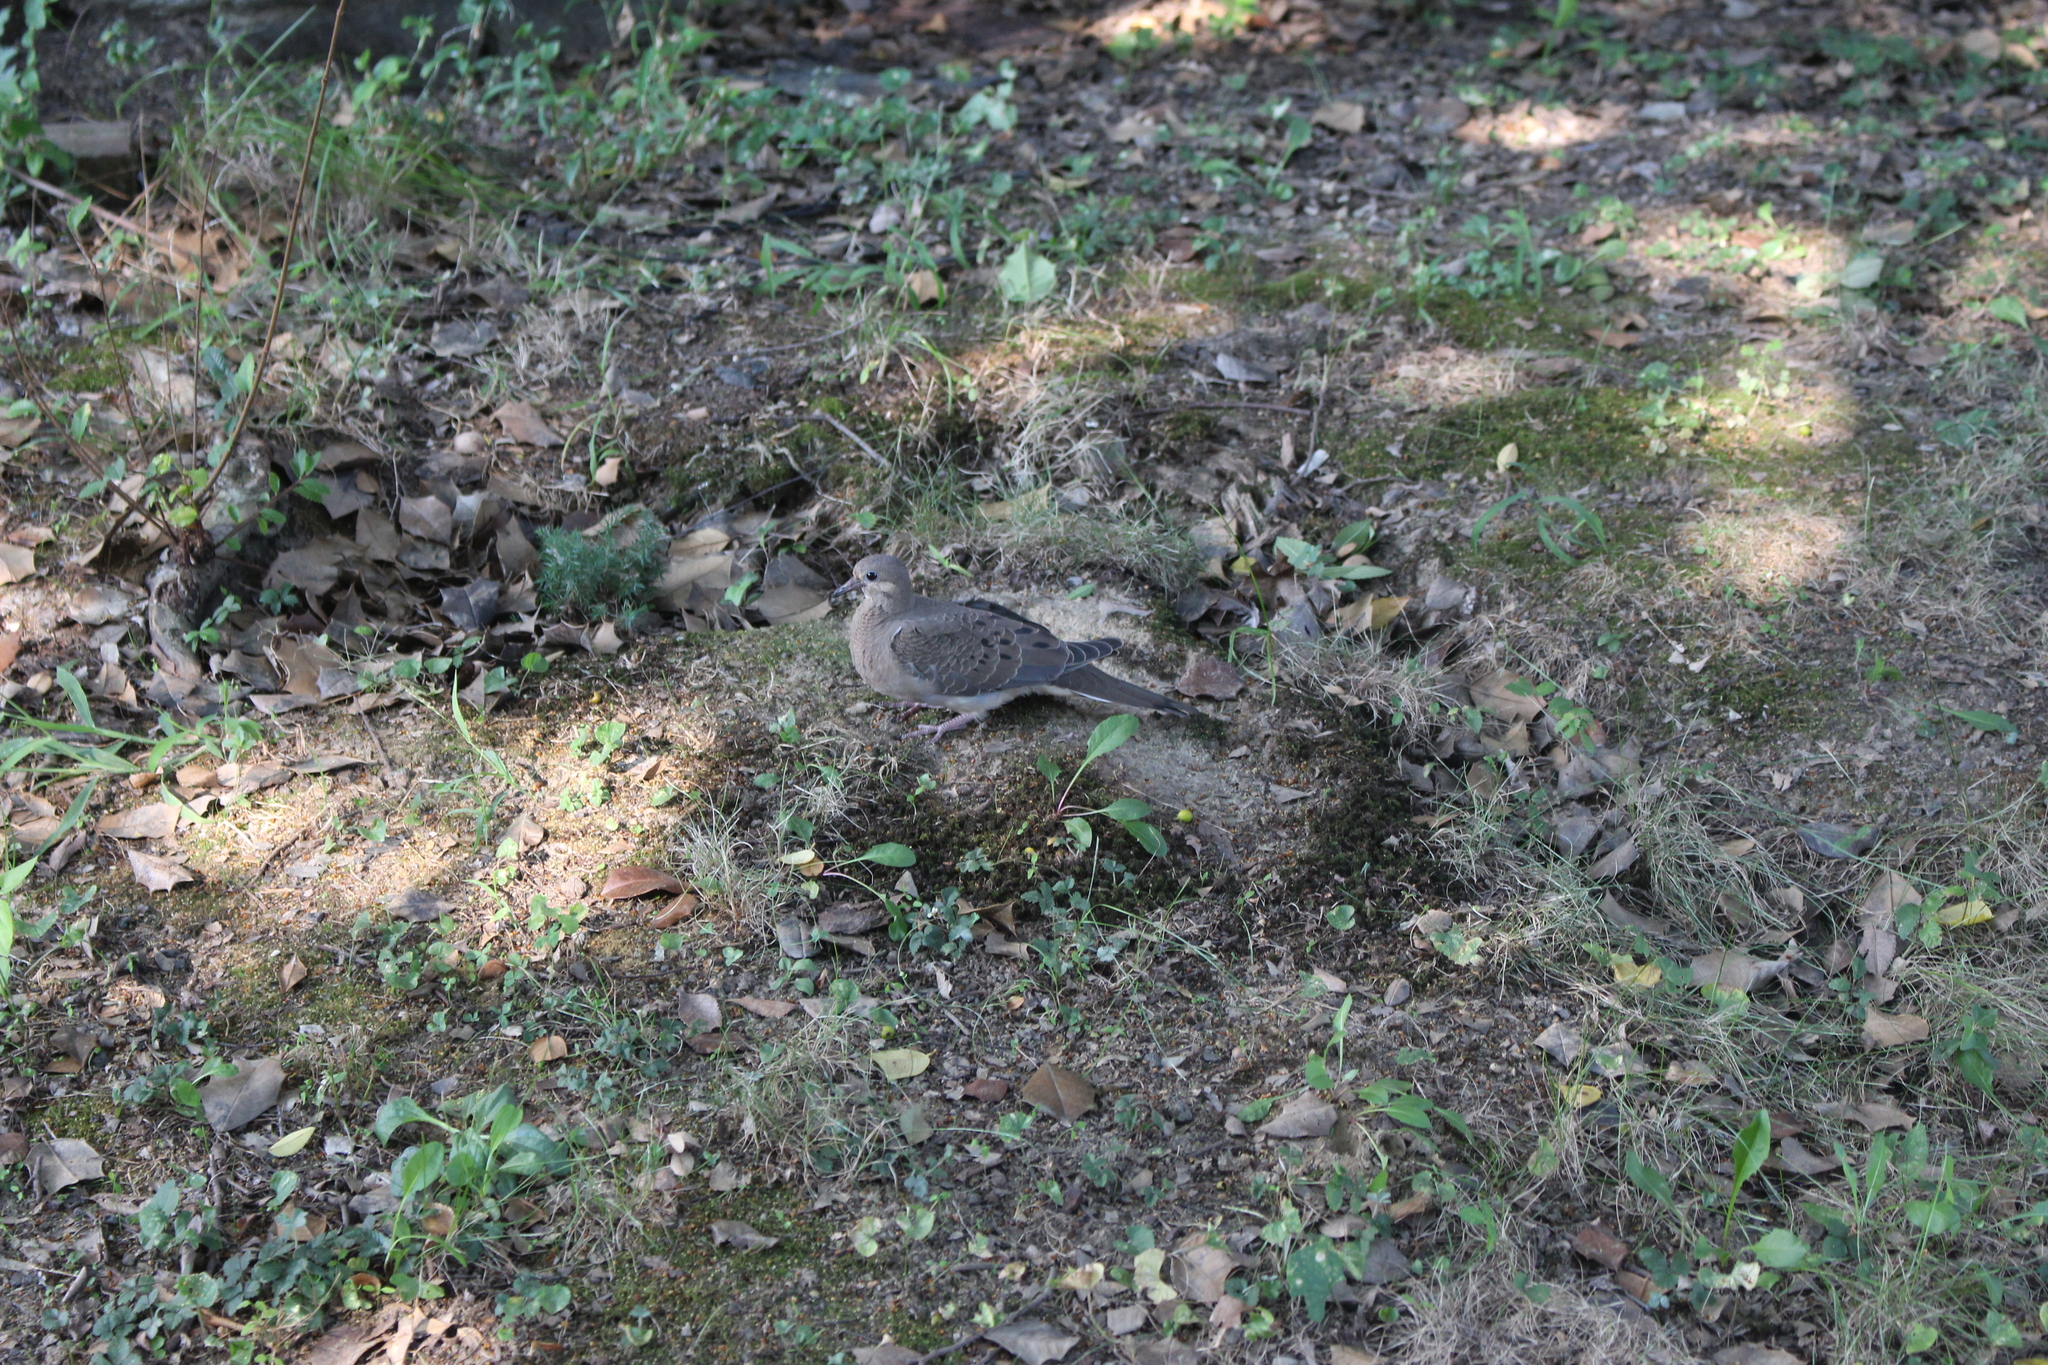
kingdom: Animalia
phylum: Chordata
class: Aves
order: Columbiformes
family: Columbidae
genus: Zenaida
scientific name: Zenaida macroura
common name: Mourning dove
